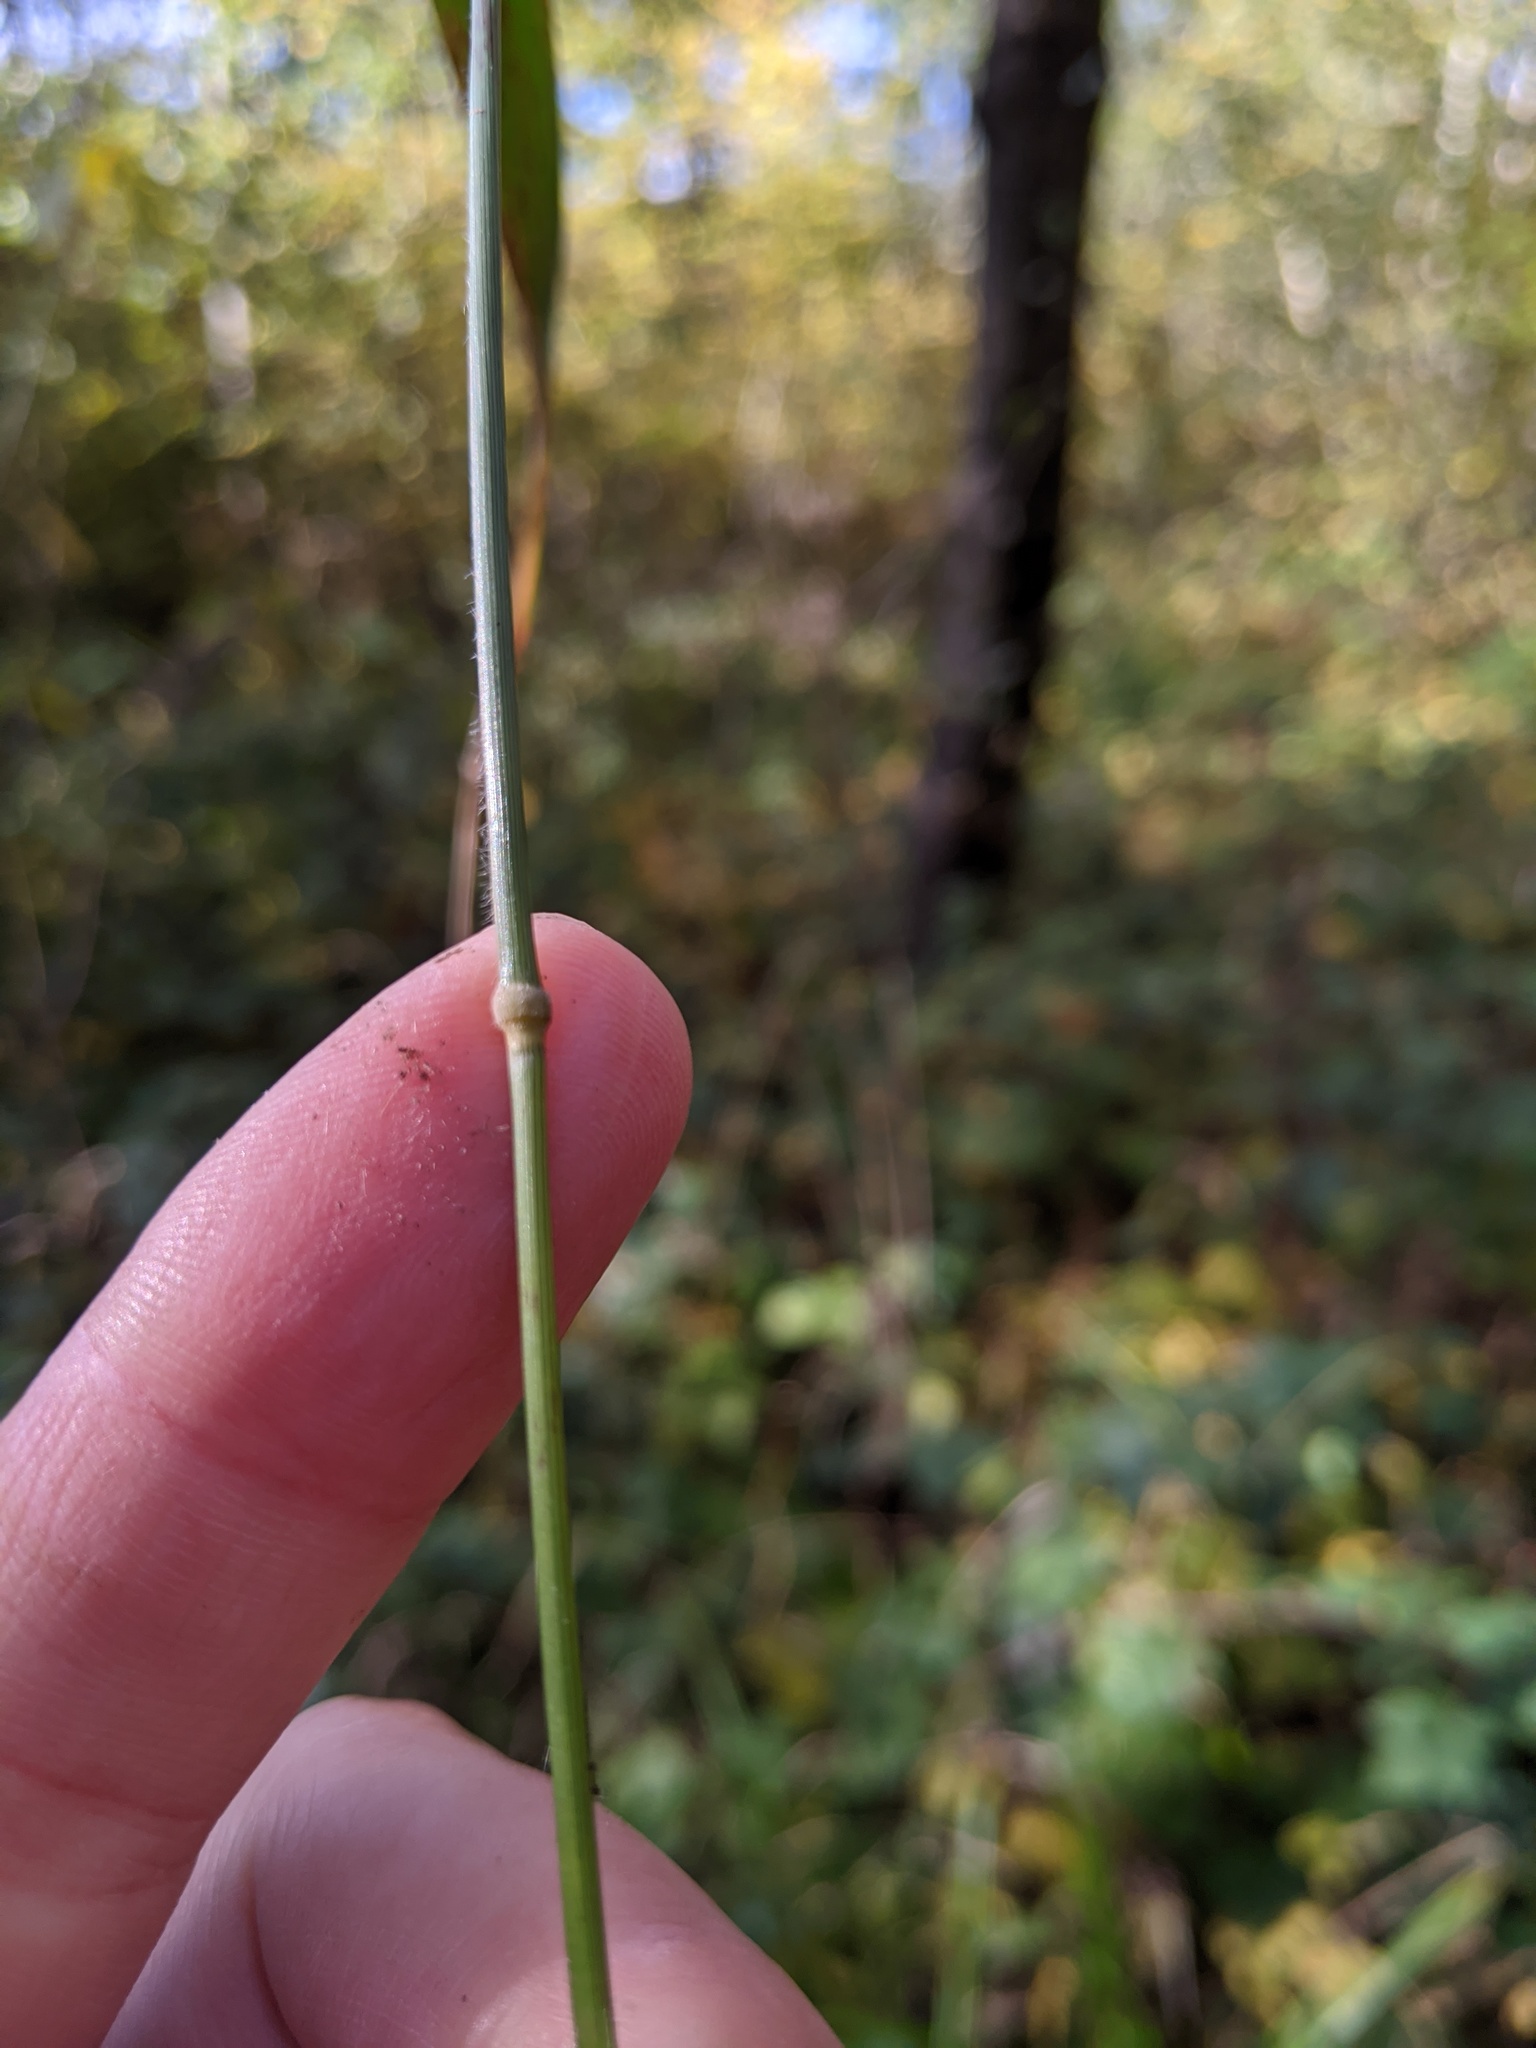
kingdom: Plantae
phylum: Tracheophyta
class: Liliopsida
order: Poales
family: Poaceae
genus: Brachypodium
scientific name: Brachypodium sylvaticum
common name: False-brome
